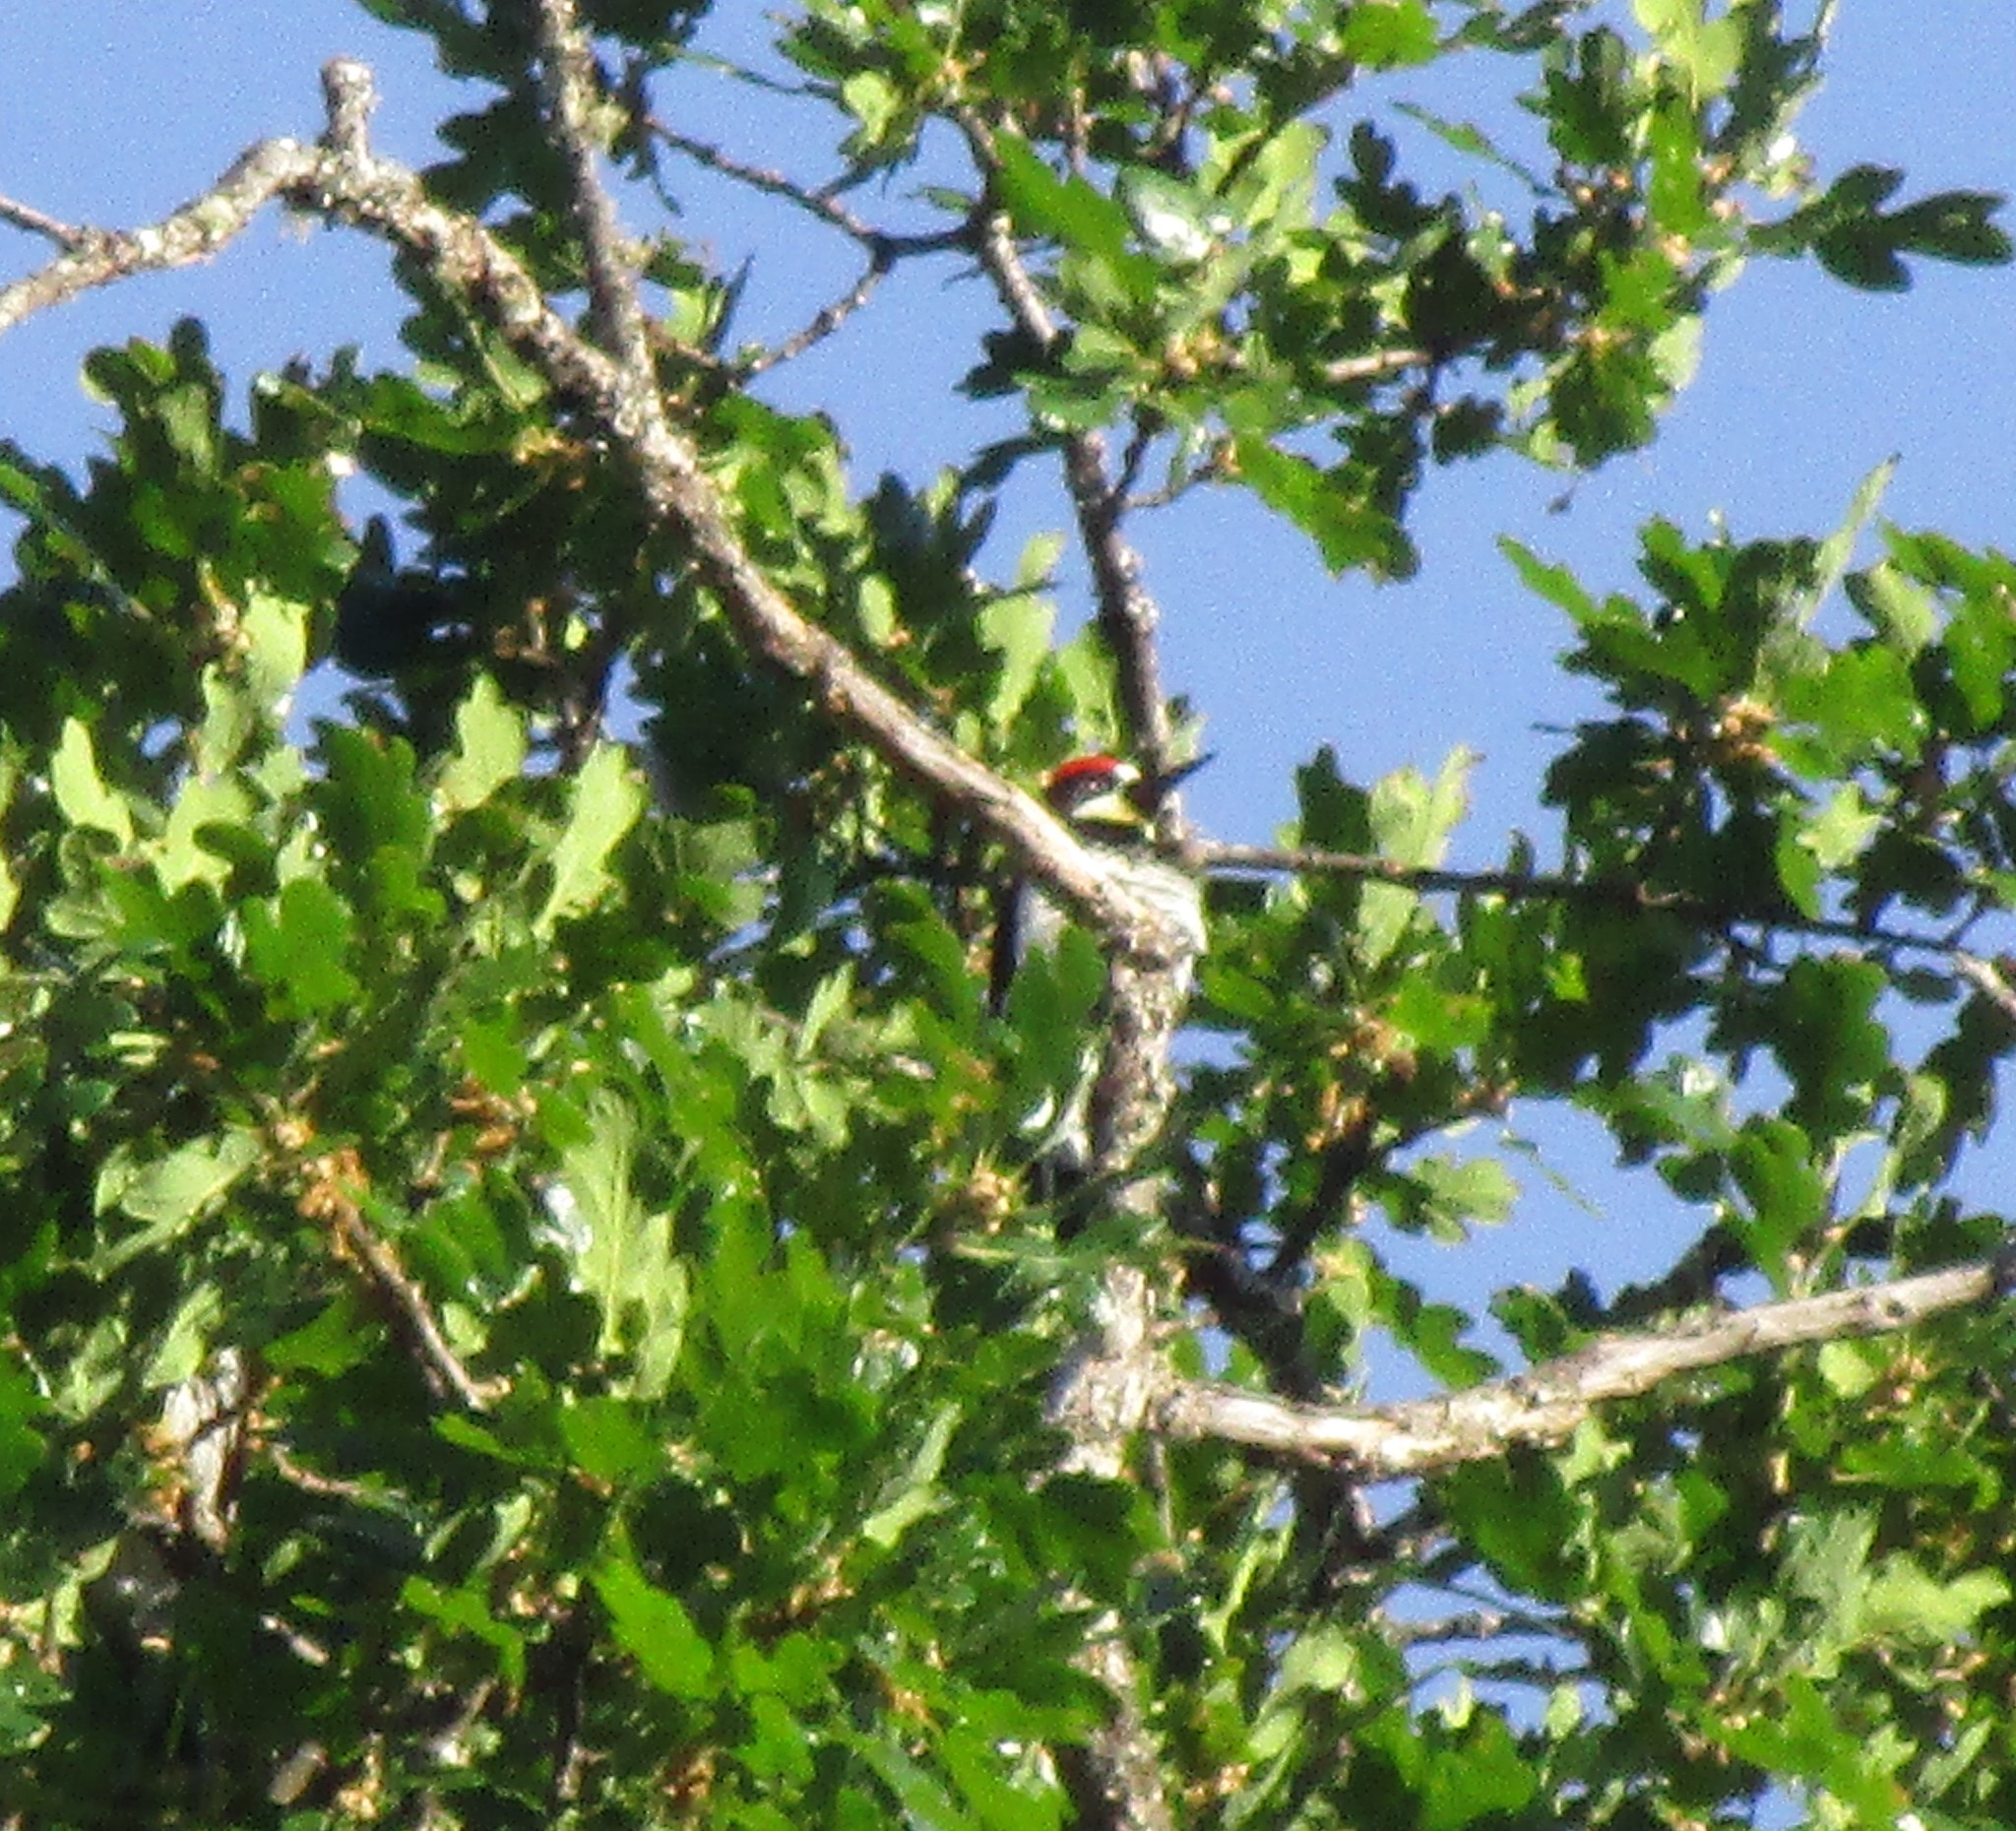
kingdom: Animalia
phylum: Chordata
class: Aves
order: Piciformes
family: Picidae
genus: Melanerpes
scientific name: Melanerpes formicivorus
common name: Acorn woodpecker
